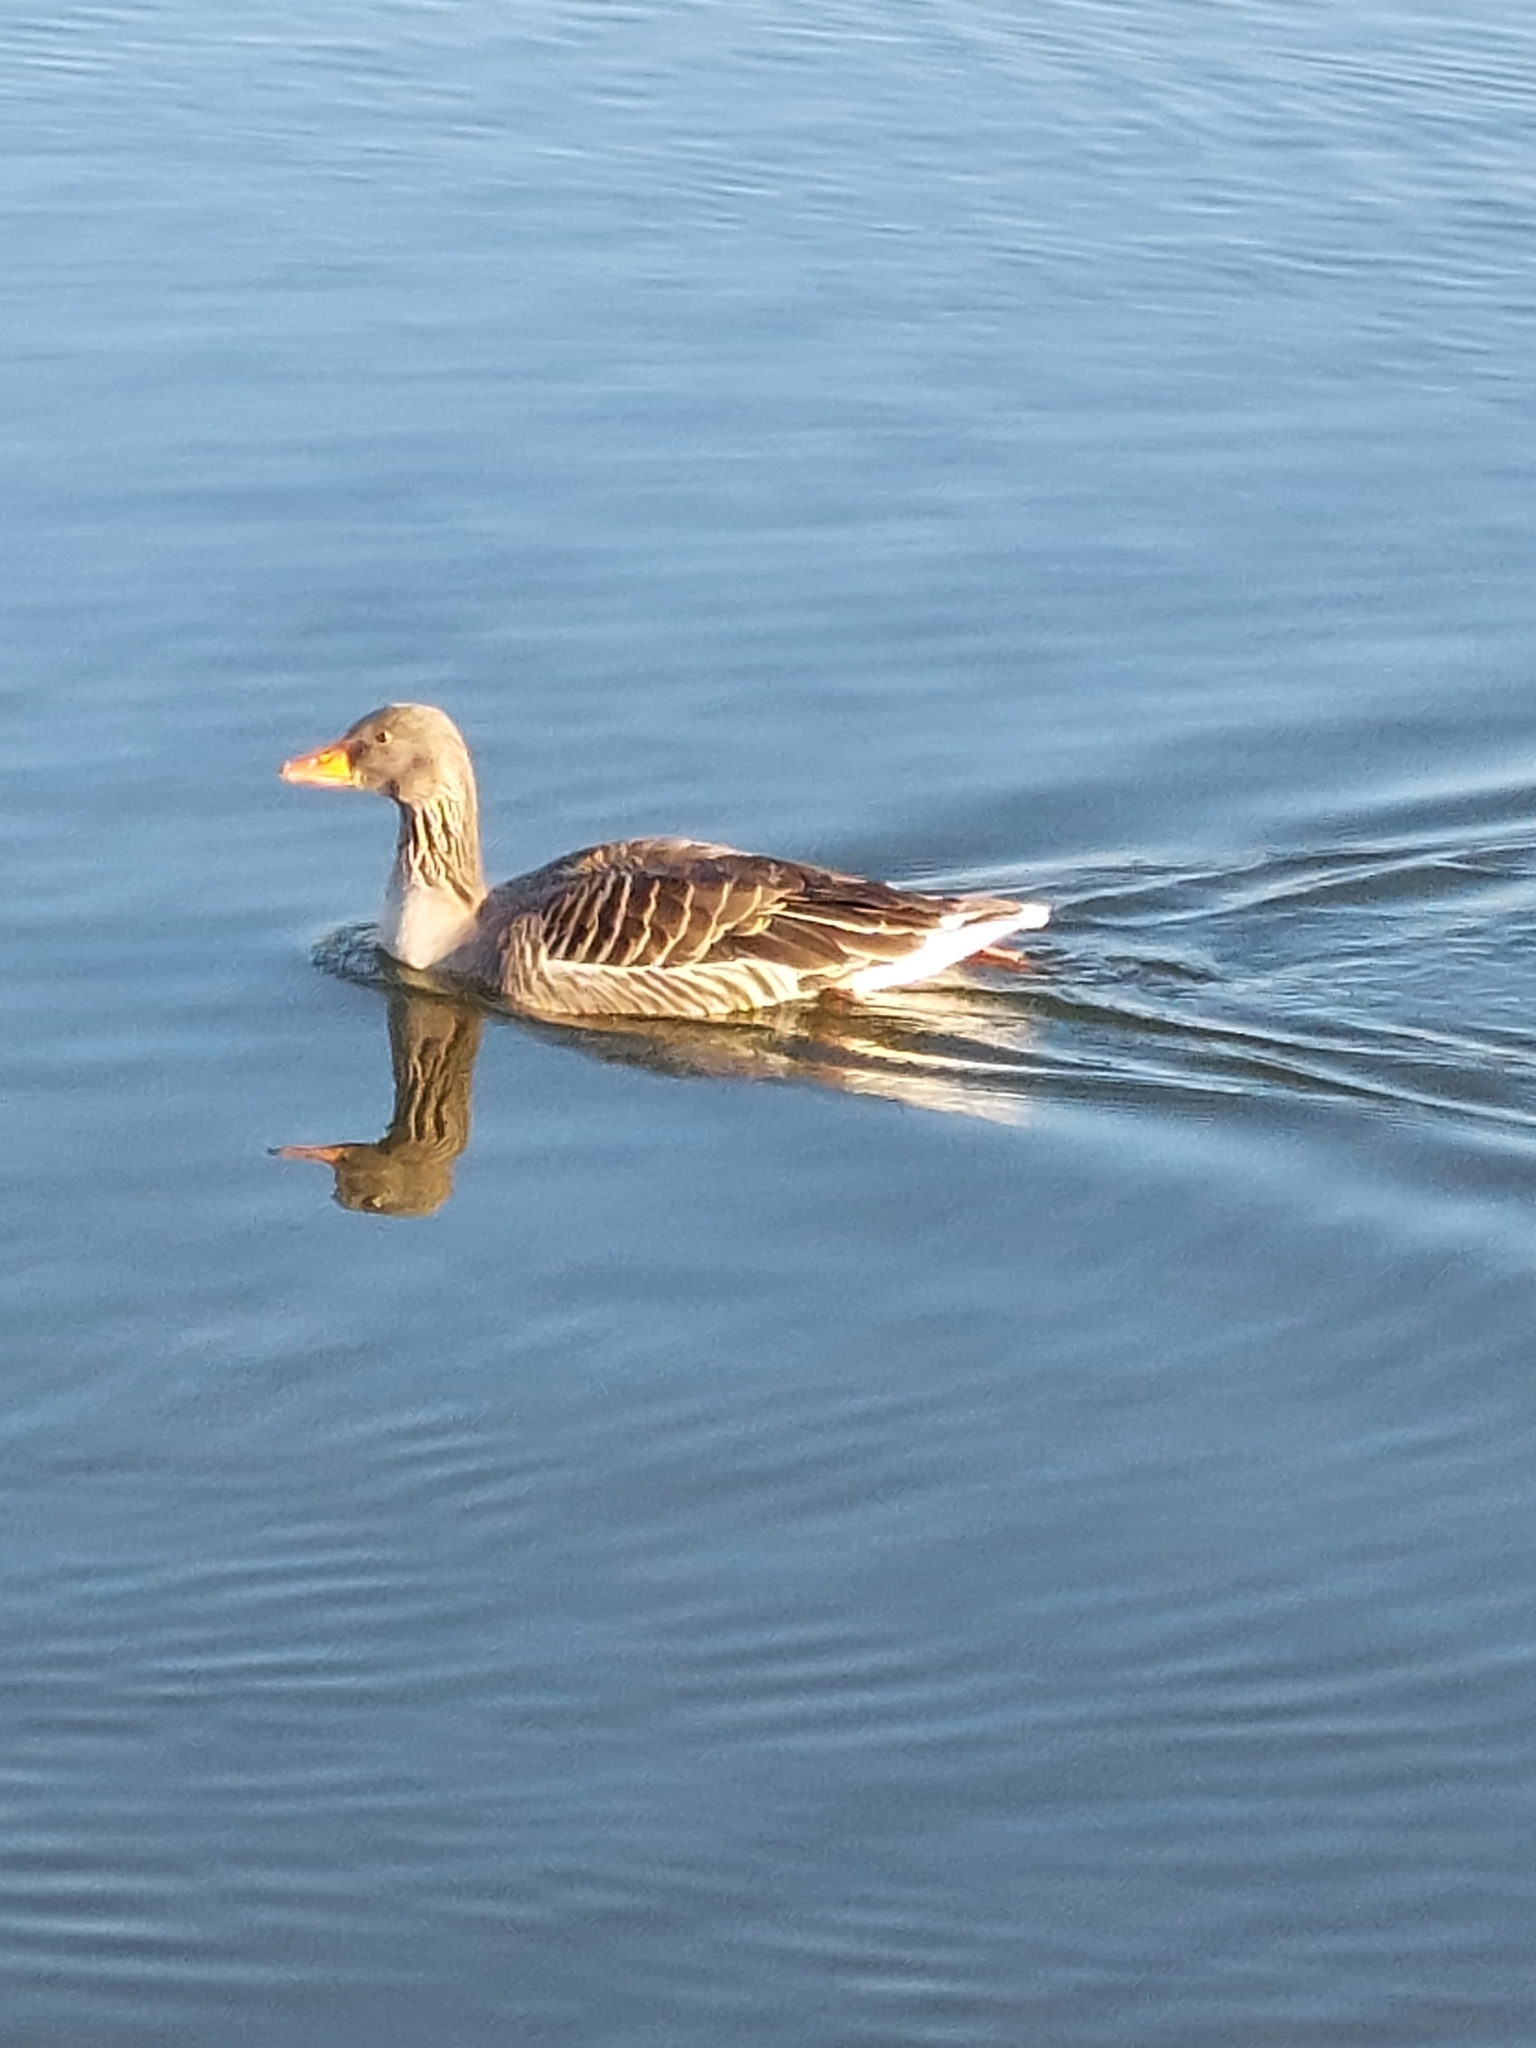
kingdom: Animalia
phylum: Chordata
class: Aves
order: Anseriformes
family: Anatidae
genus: Anser
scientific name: Anser anser
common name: Greylag goose
